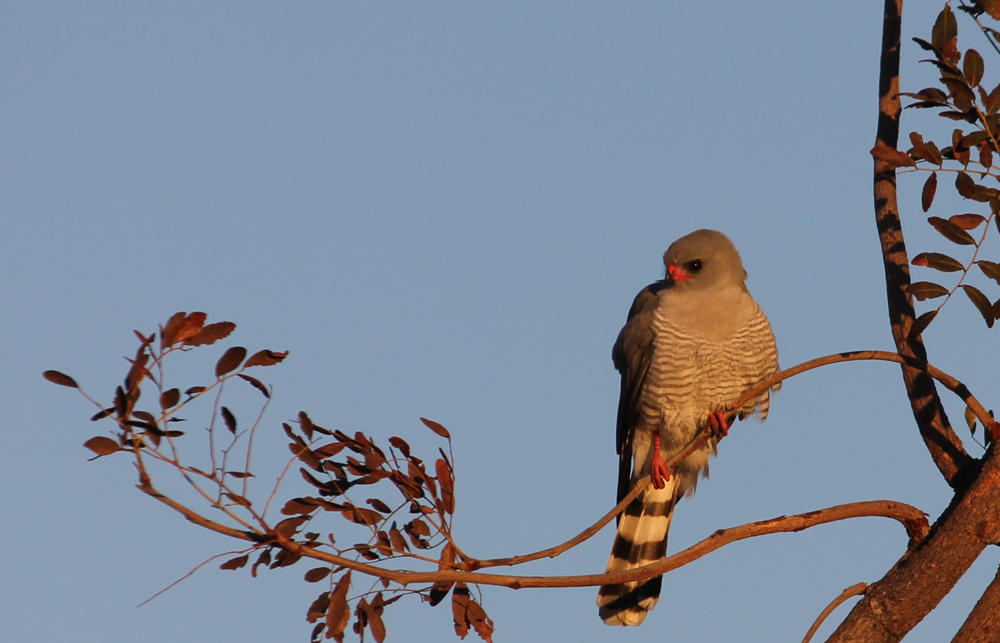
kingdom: Animalia
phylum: Chordata
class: Aves
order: Accipitriformes
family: Accipitridae
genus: Micronisus
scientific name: Micronisus gabar
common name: Gabar goshawk
